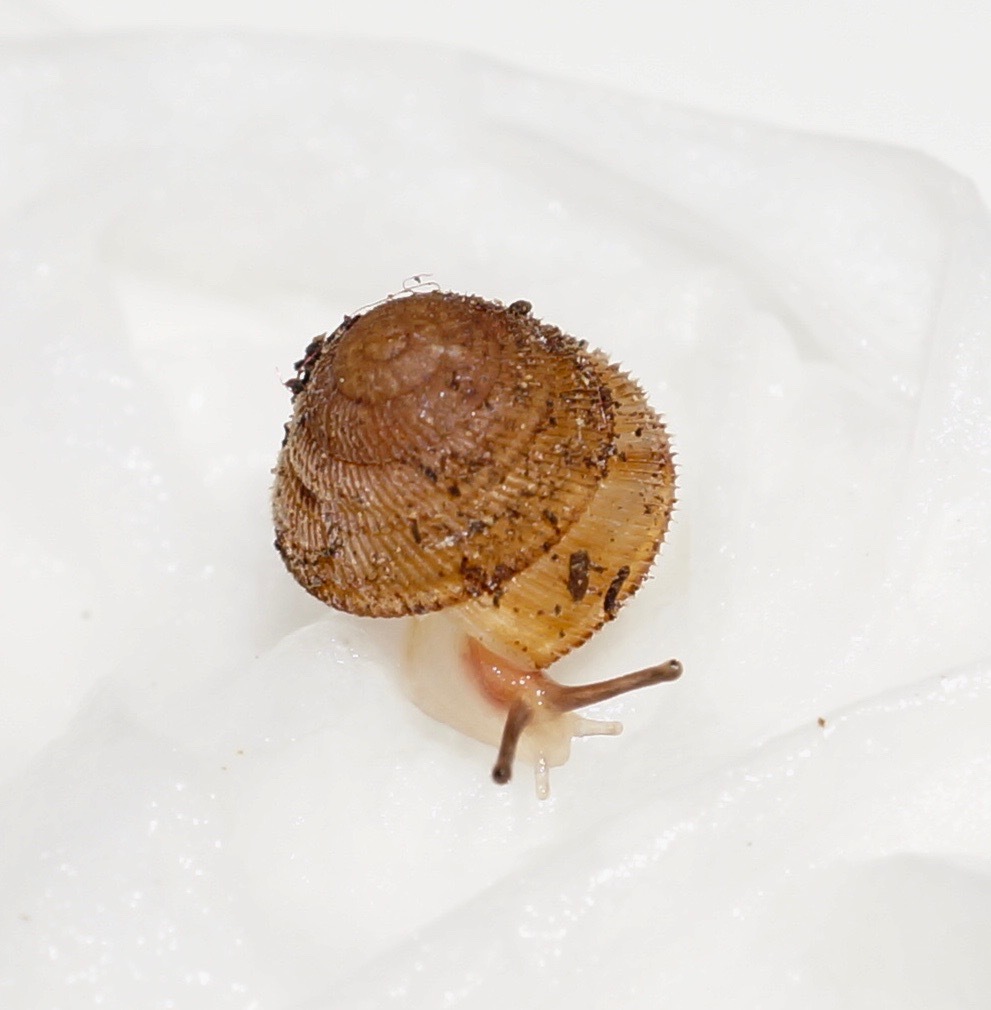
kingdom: Animalia
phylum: Mollusca
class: Gastropoda
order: Stylommatophora
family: Microcystidae
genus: Fanulena
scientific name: Fanulena insculpta
